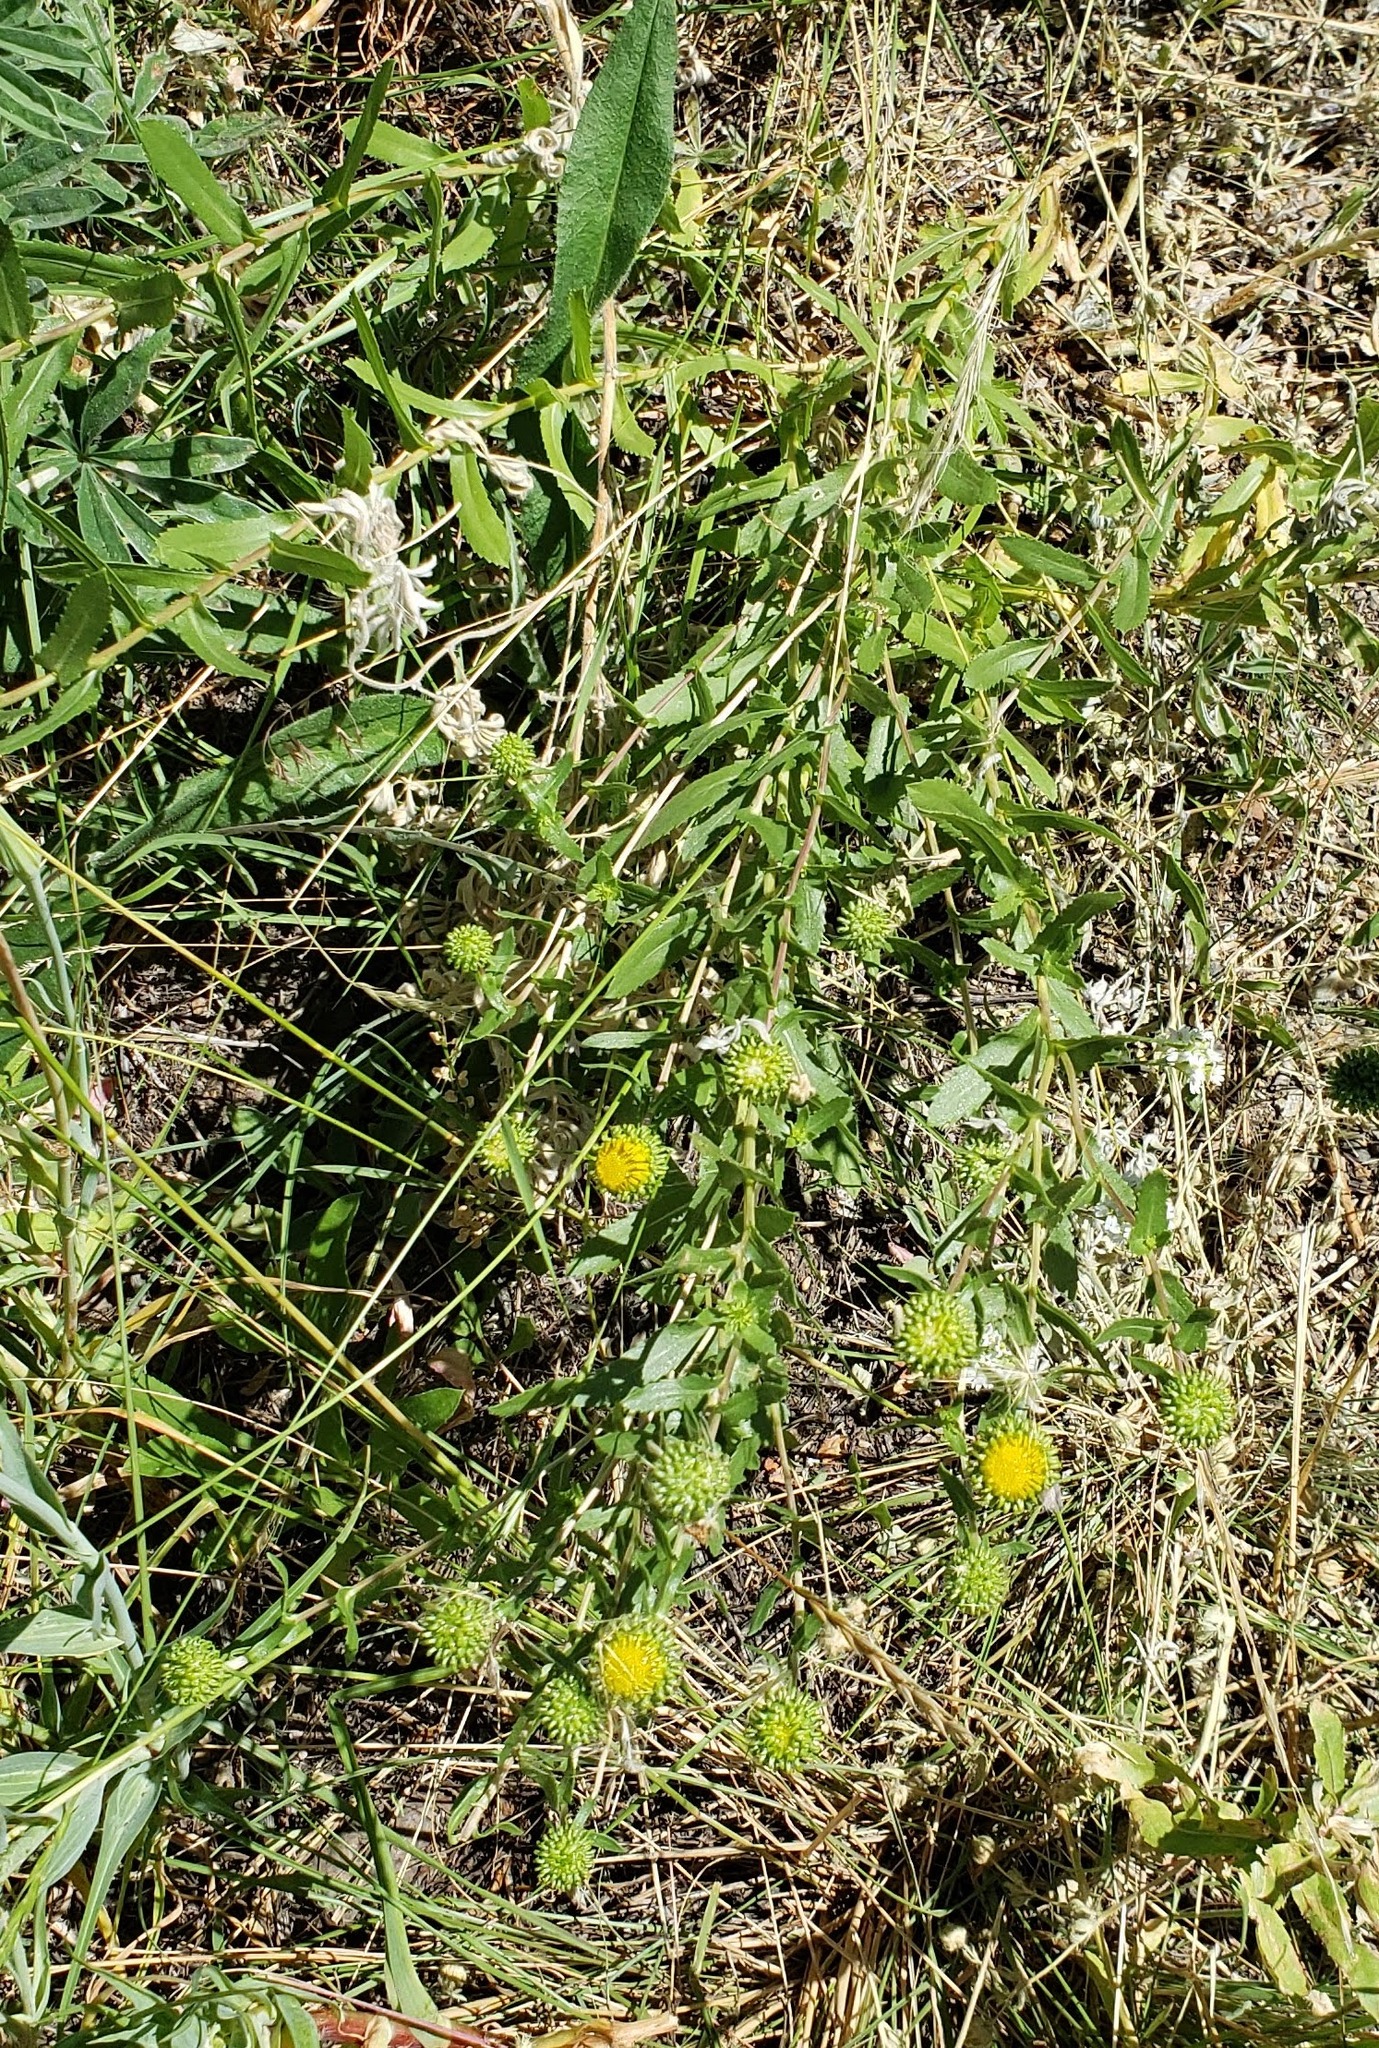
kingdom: Plantae
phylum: Tracheophyta
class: Magnoliopsida
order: Asterales
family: Asteraceae
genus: Grindelia
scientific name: Grindelia squarrosa
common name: Curly-cup gumweed
